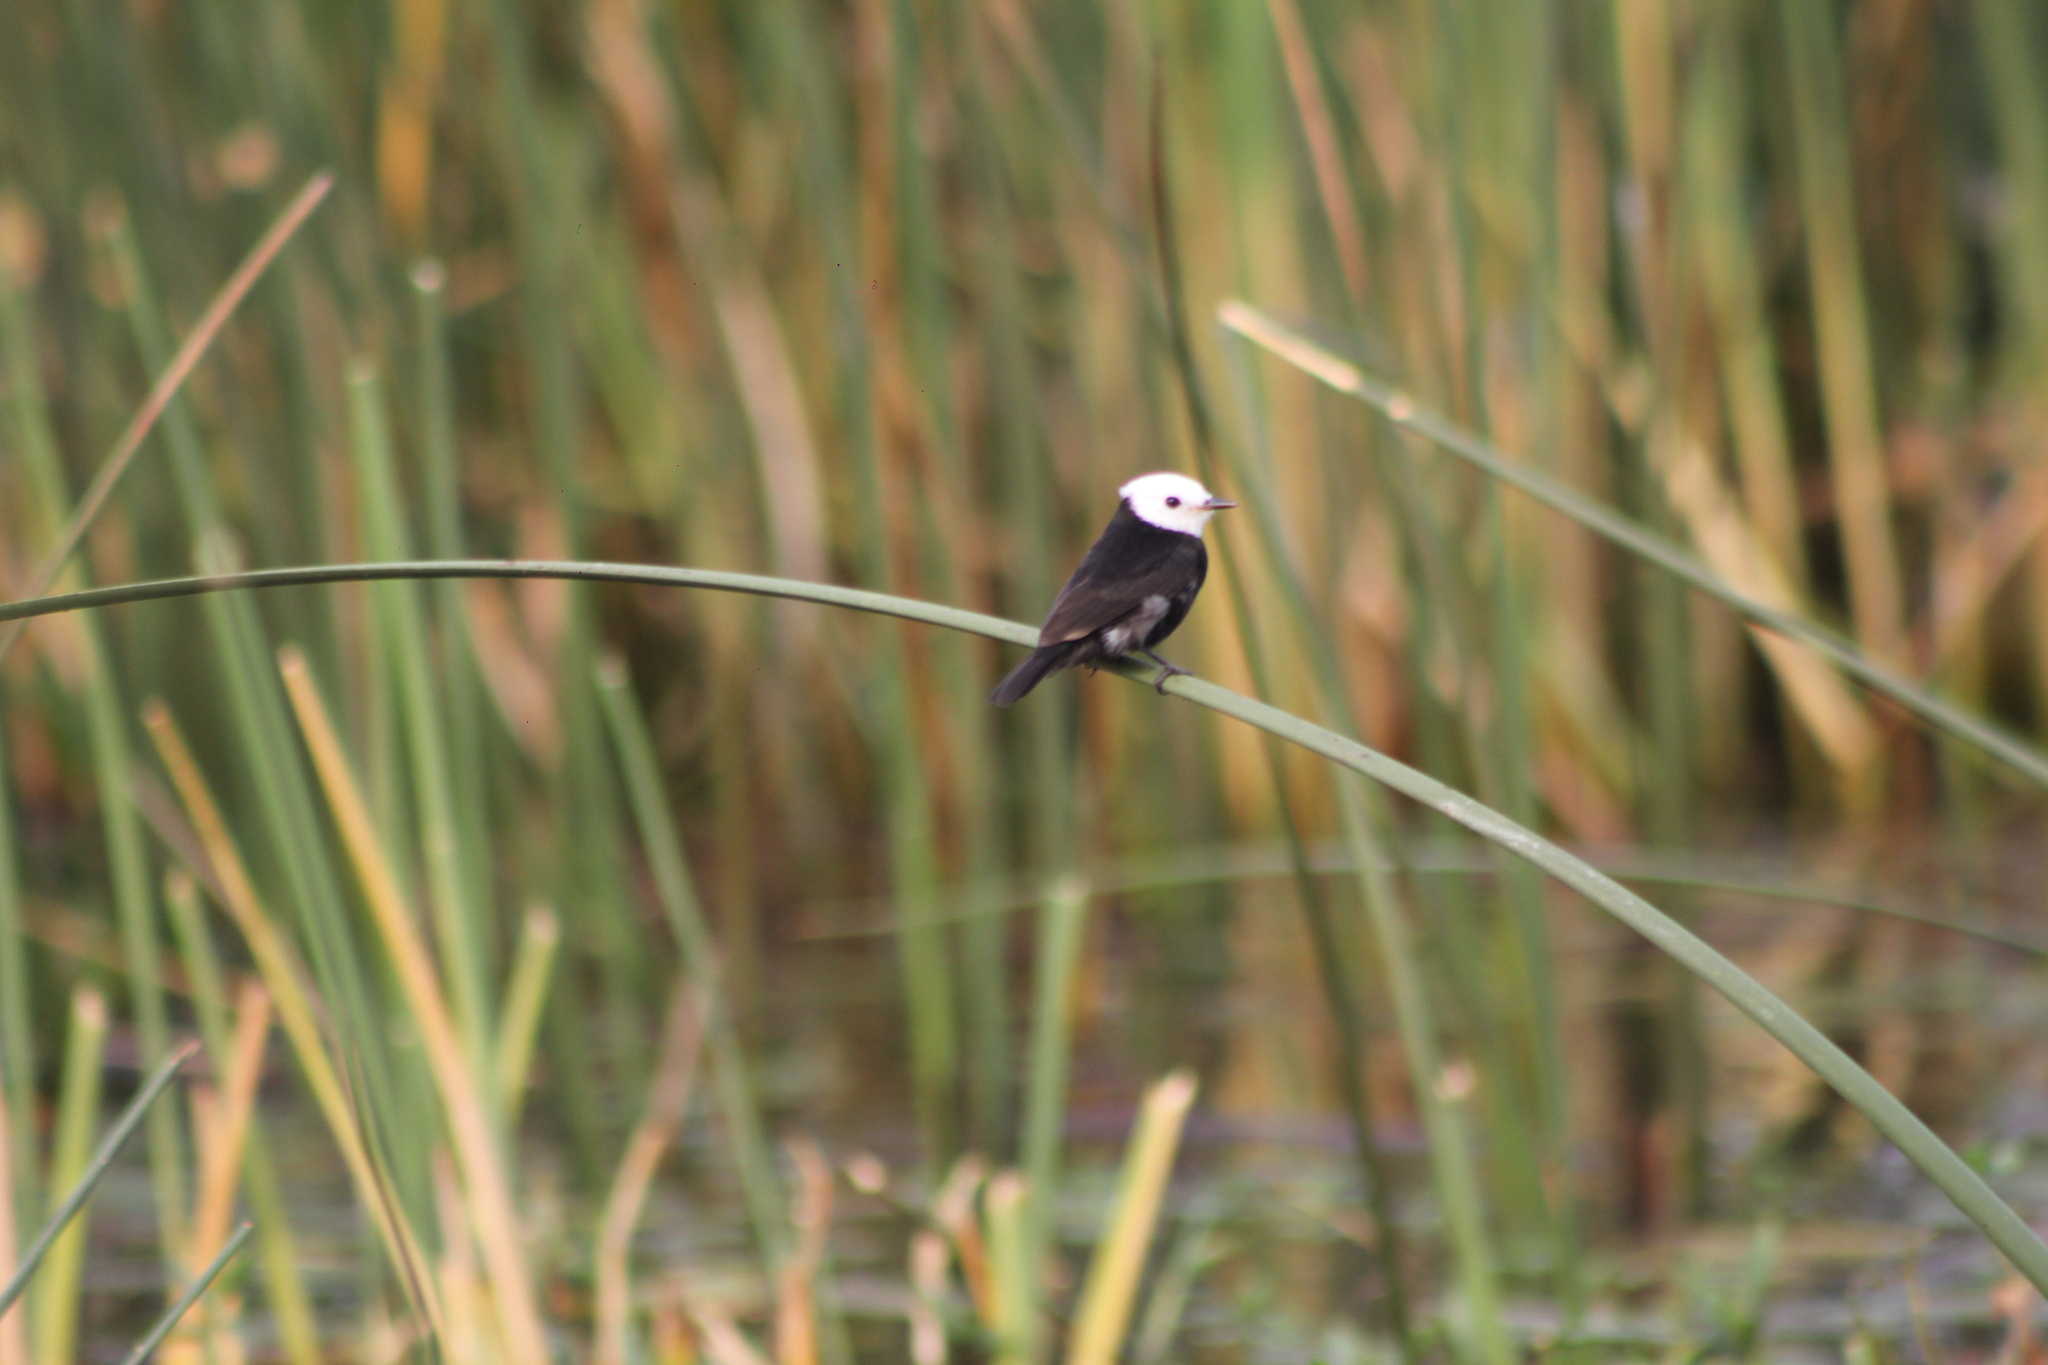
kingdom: Animalia
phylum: Chordata
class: Aves
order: Passeriformes
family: Tyrannidae
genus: Arundinicola
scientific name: Arundinicola leucocephala
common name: White-headed marsh tyrant
